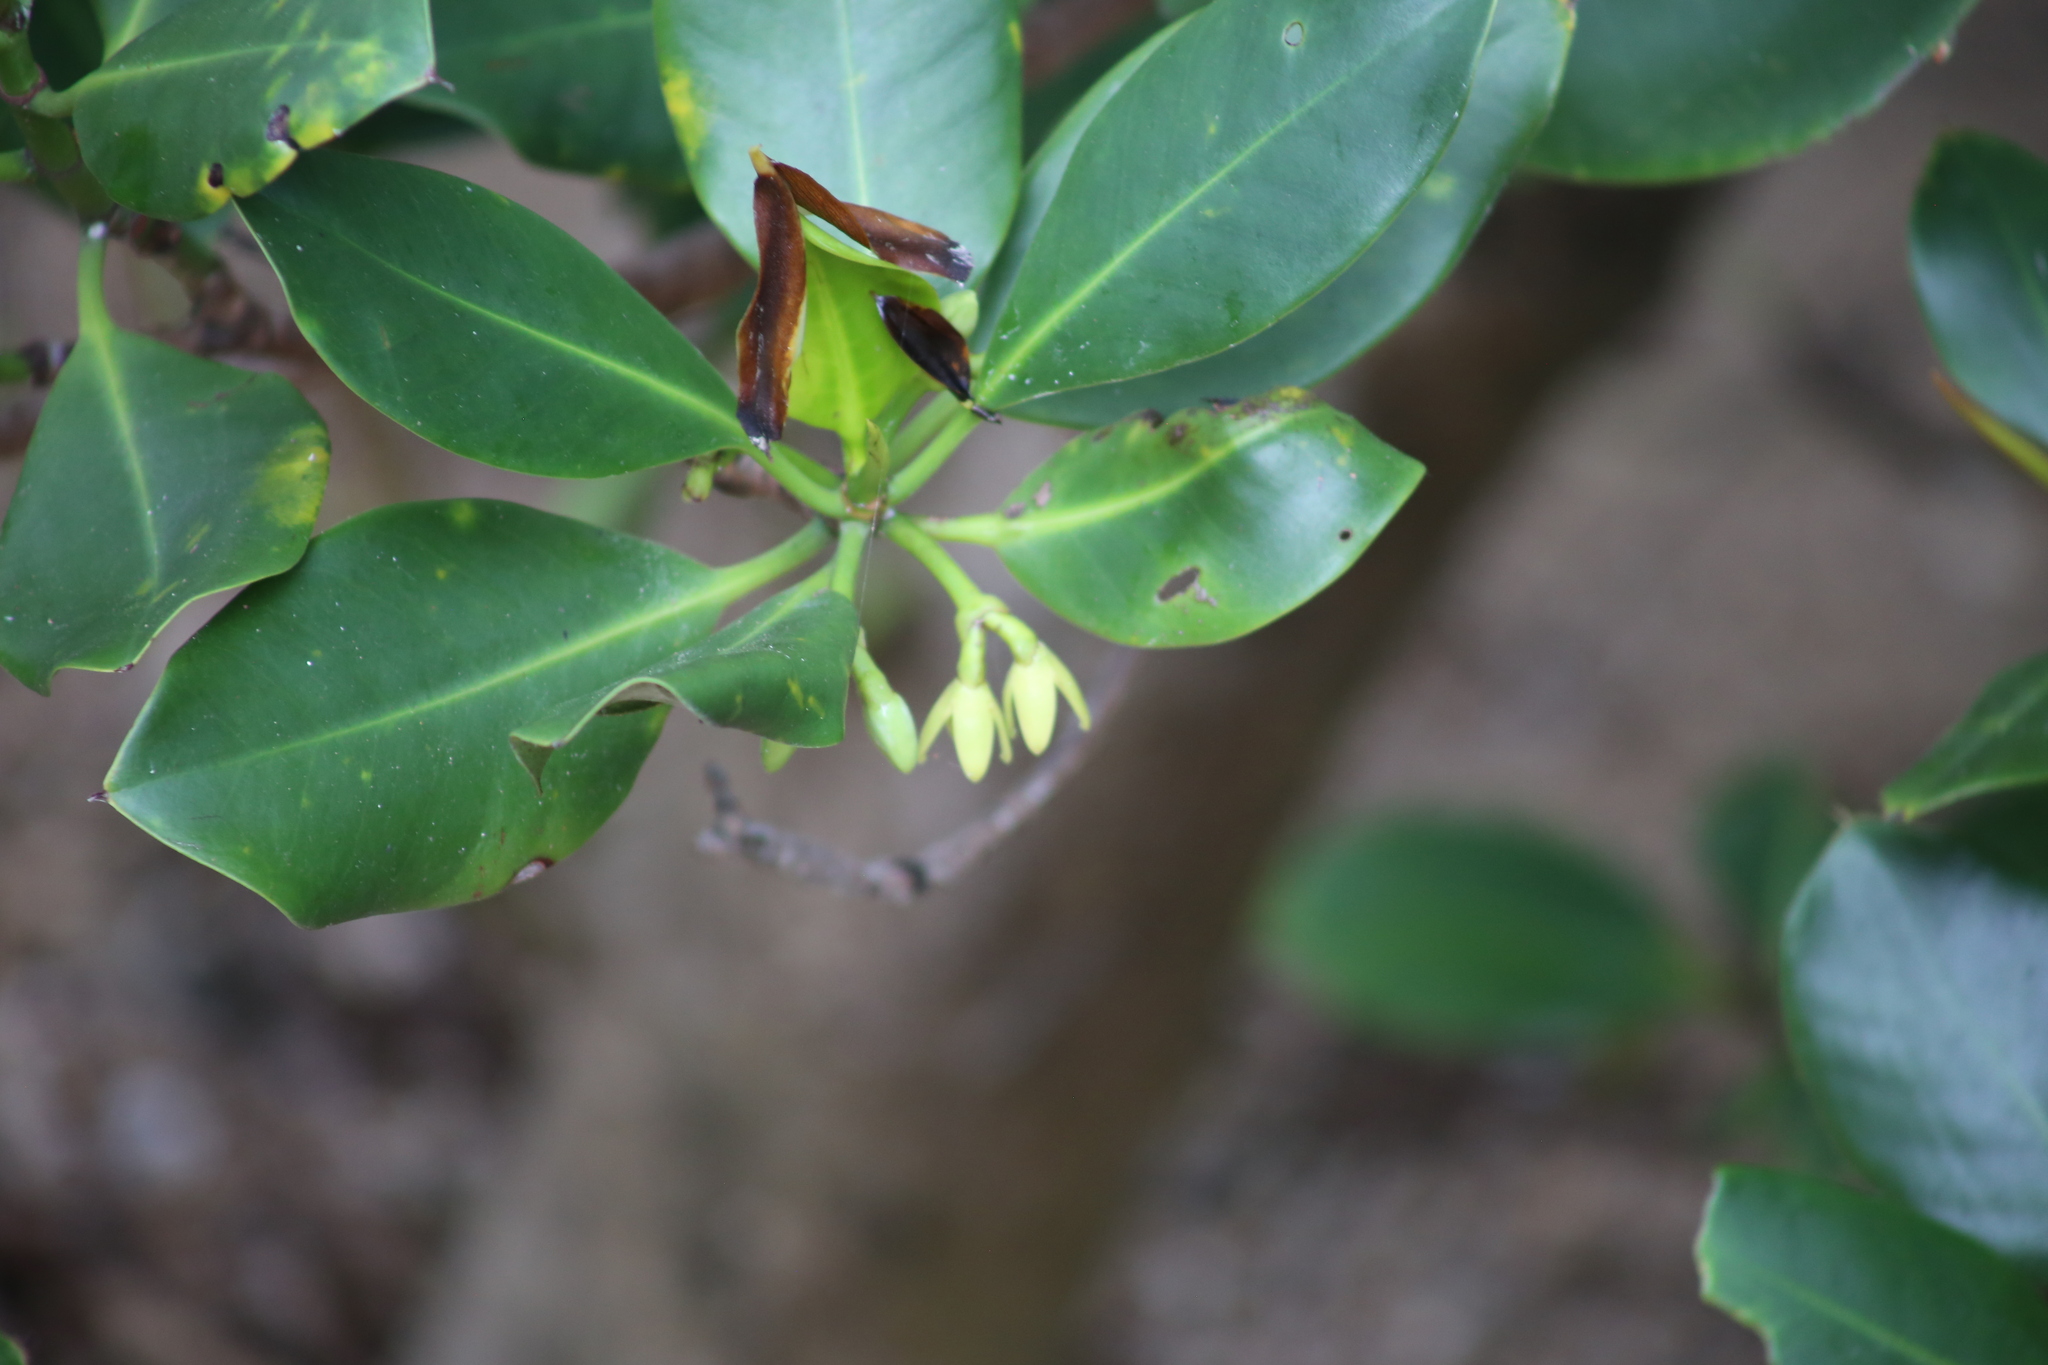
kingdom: Plantae
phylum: Tracheophyta
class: Magnoliopsida
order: Malpighiales
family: Rhizophoraceae
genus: Rhizophora
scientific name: Rhizophora stylosa
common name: Red mangrove
